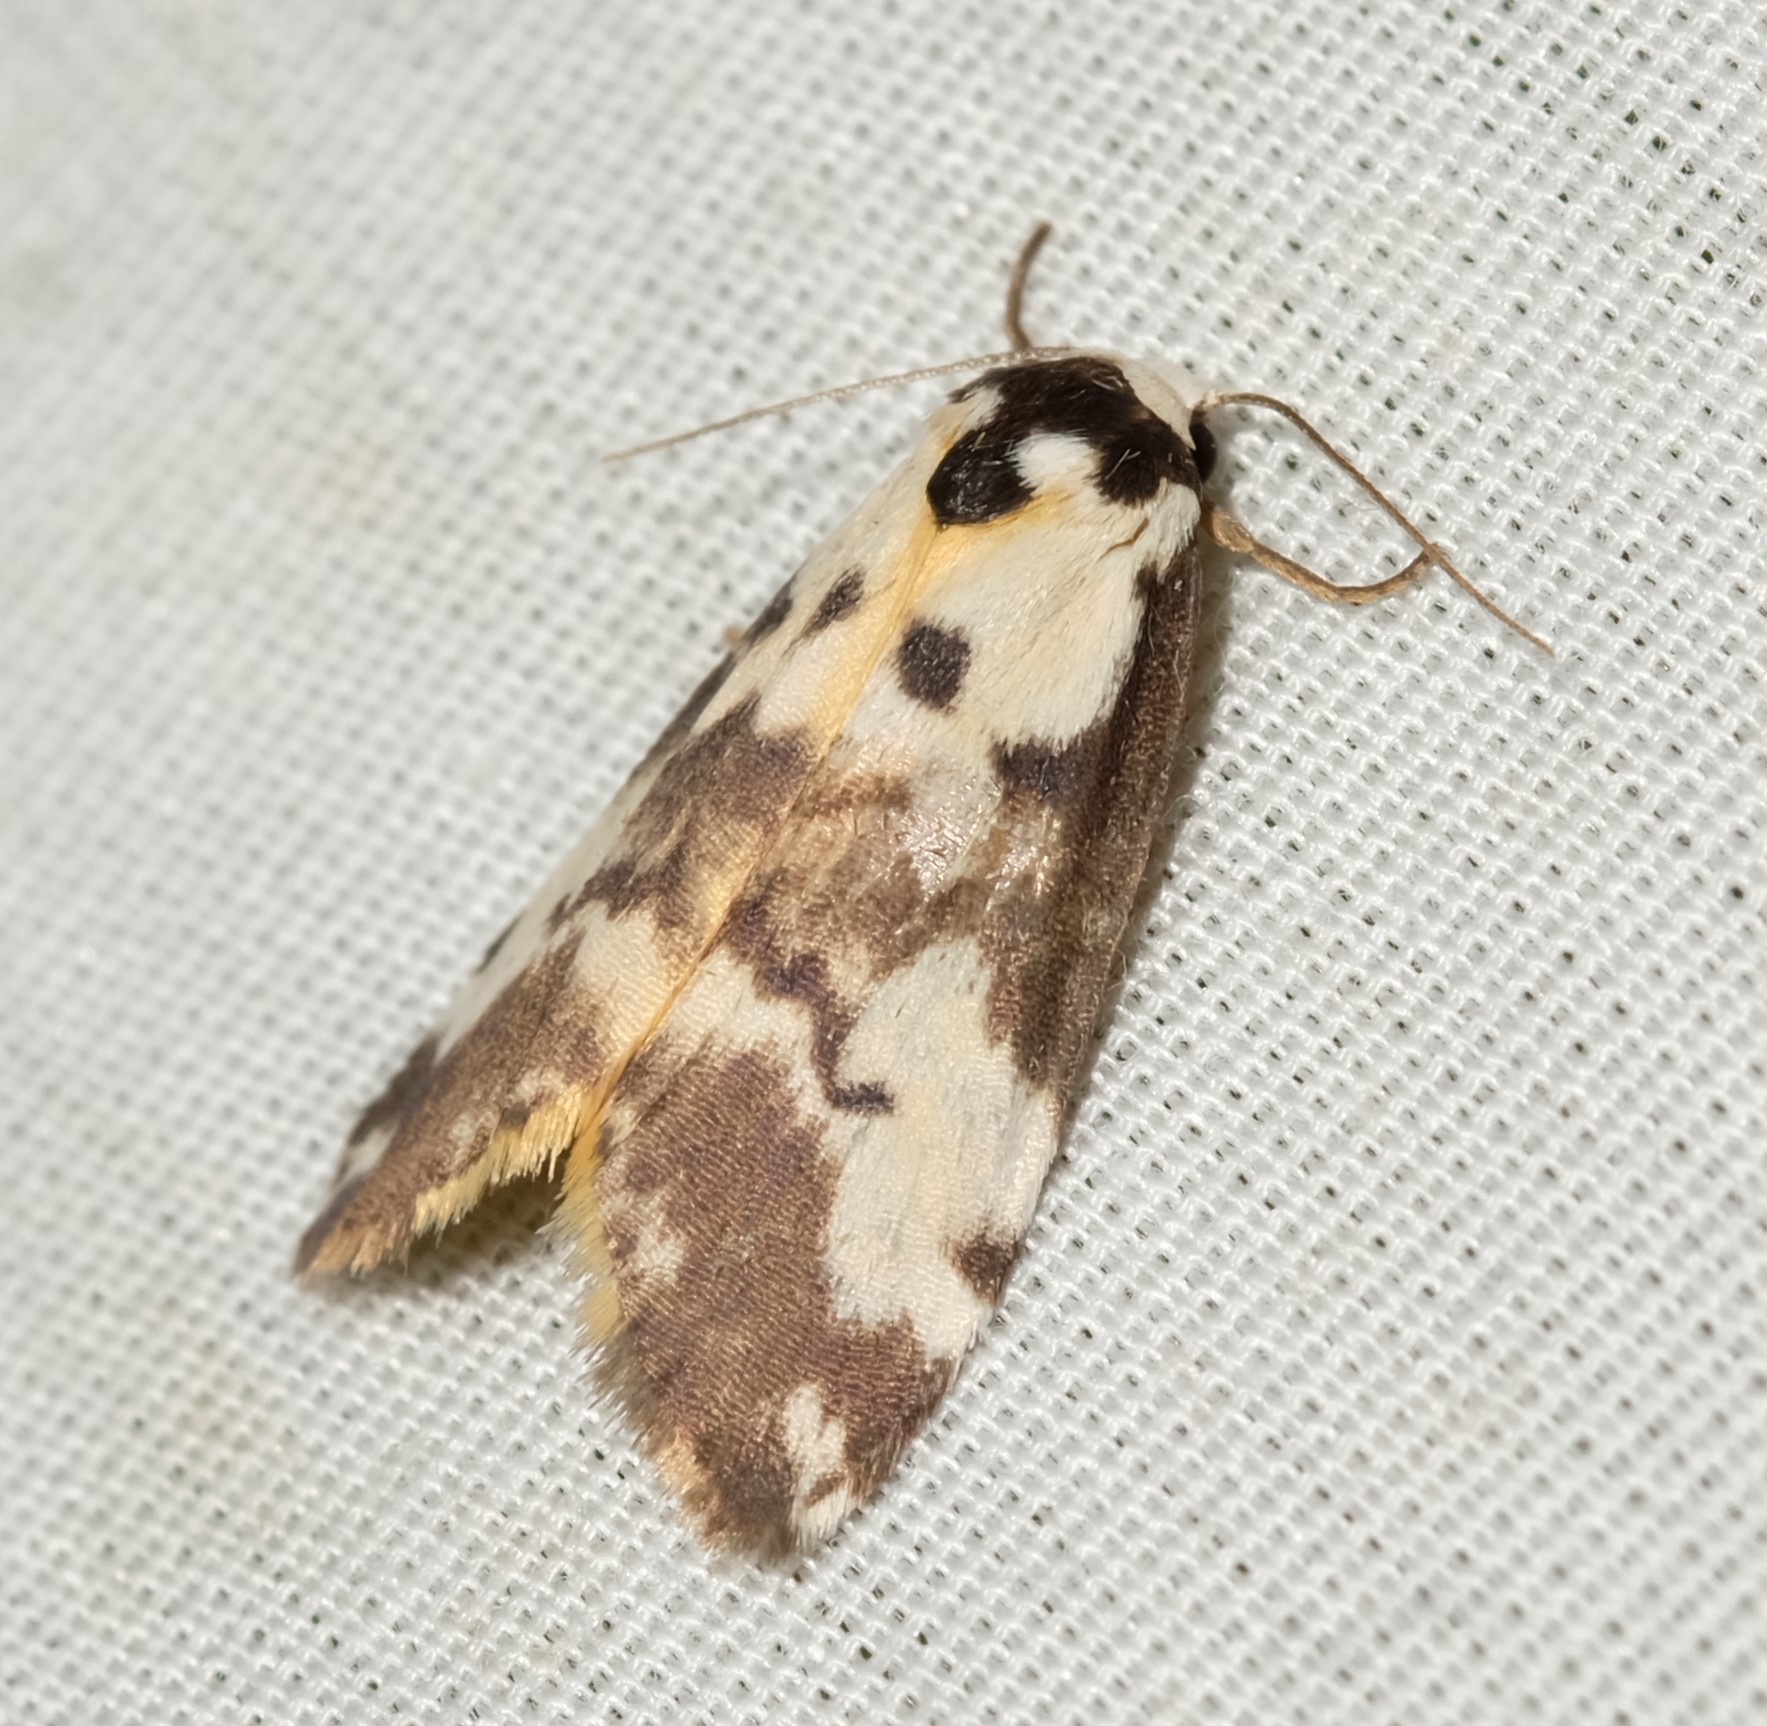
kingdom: Animalia
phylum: Arthropoda
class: Insecta
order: Lepidoptera
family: Erebidae
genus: Thallarcha
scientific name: Thallarcha pellax
